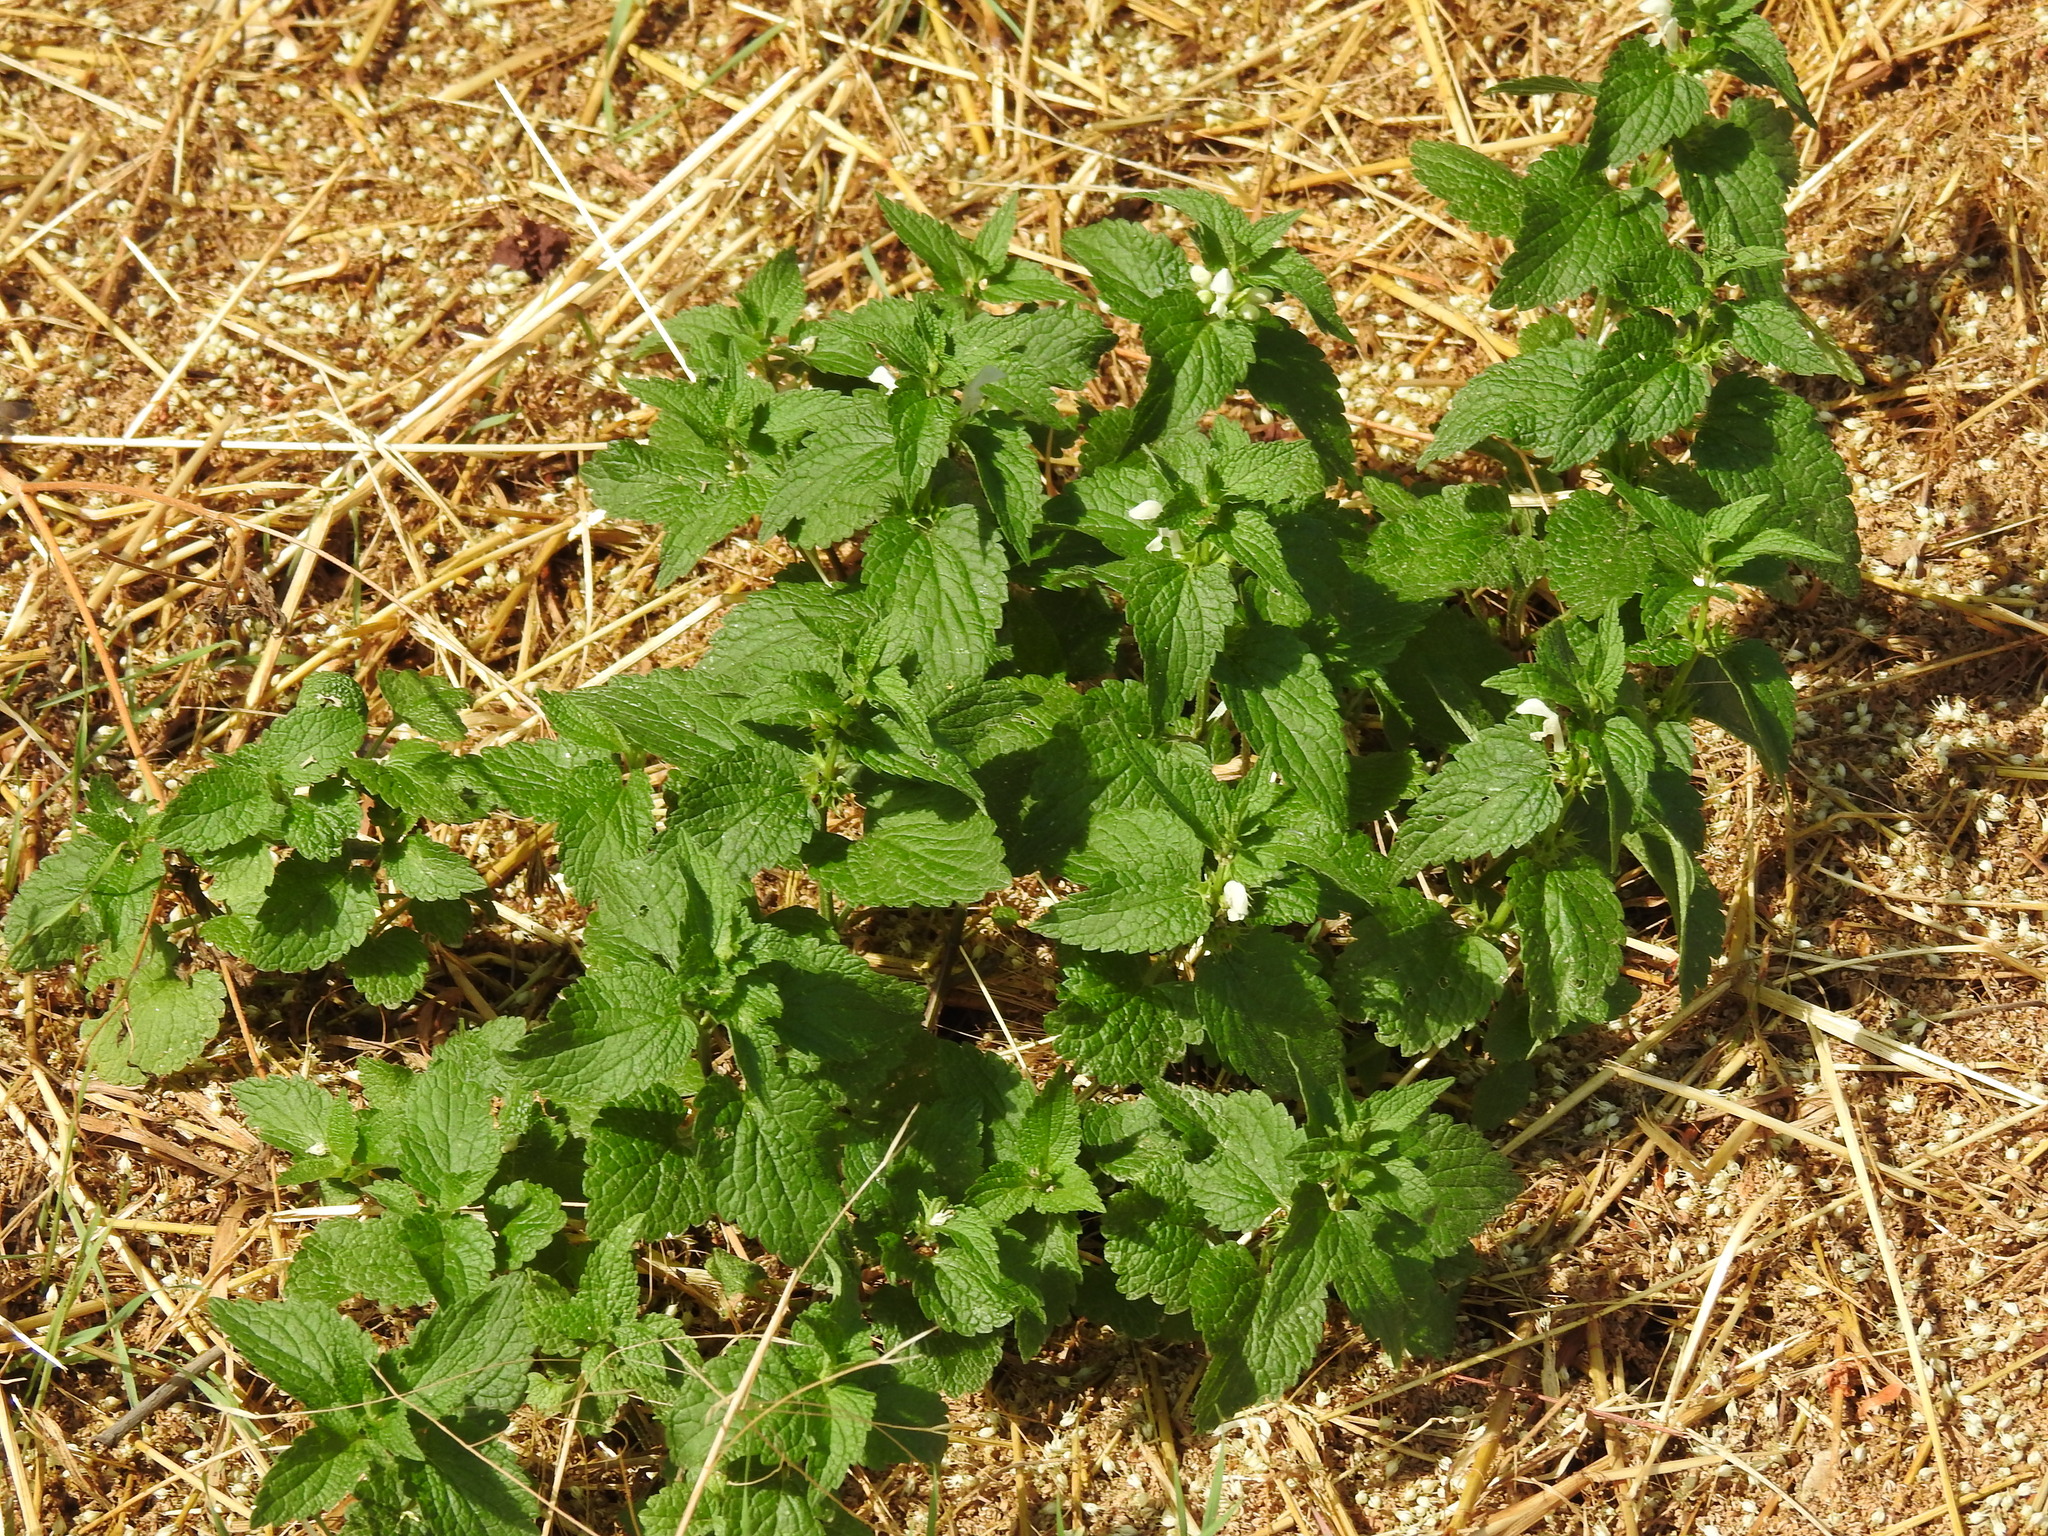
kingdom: Plantae
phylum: Tracheophyta
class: Magnoliopsida
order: Lamiales
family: Lamiaceae
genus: Lamium
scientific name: Lamium album
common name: White dead-nettle
